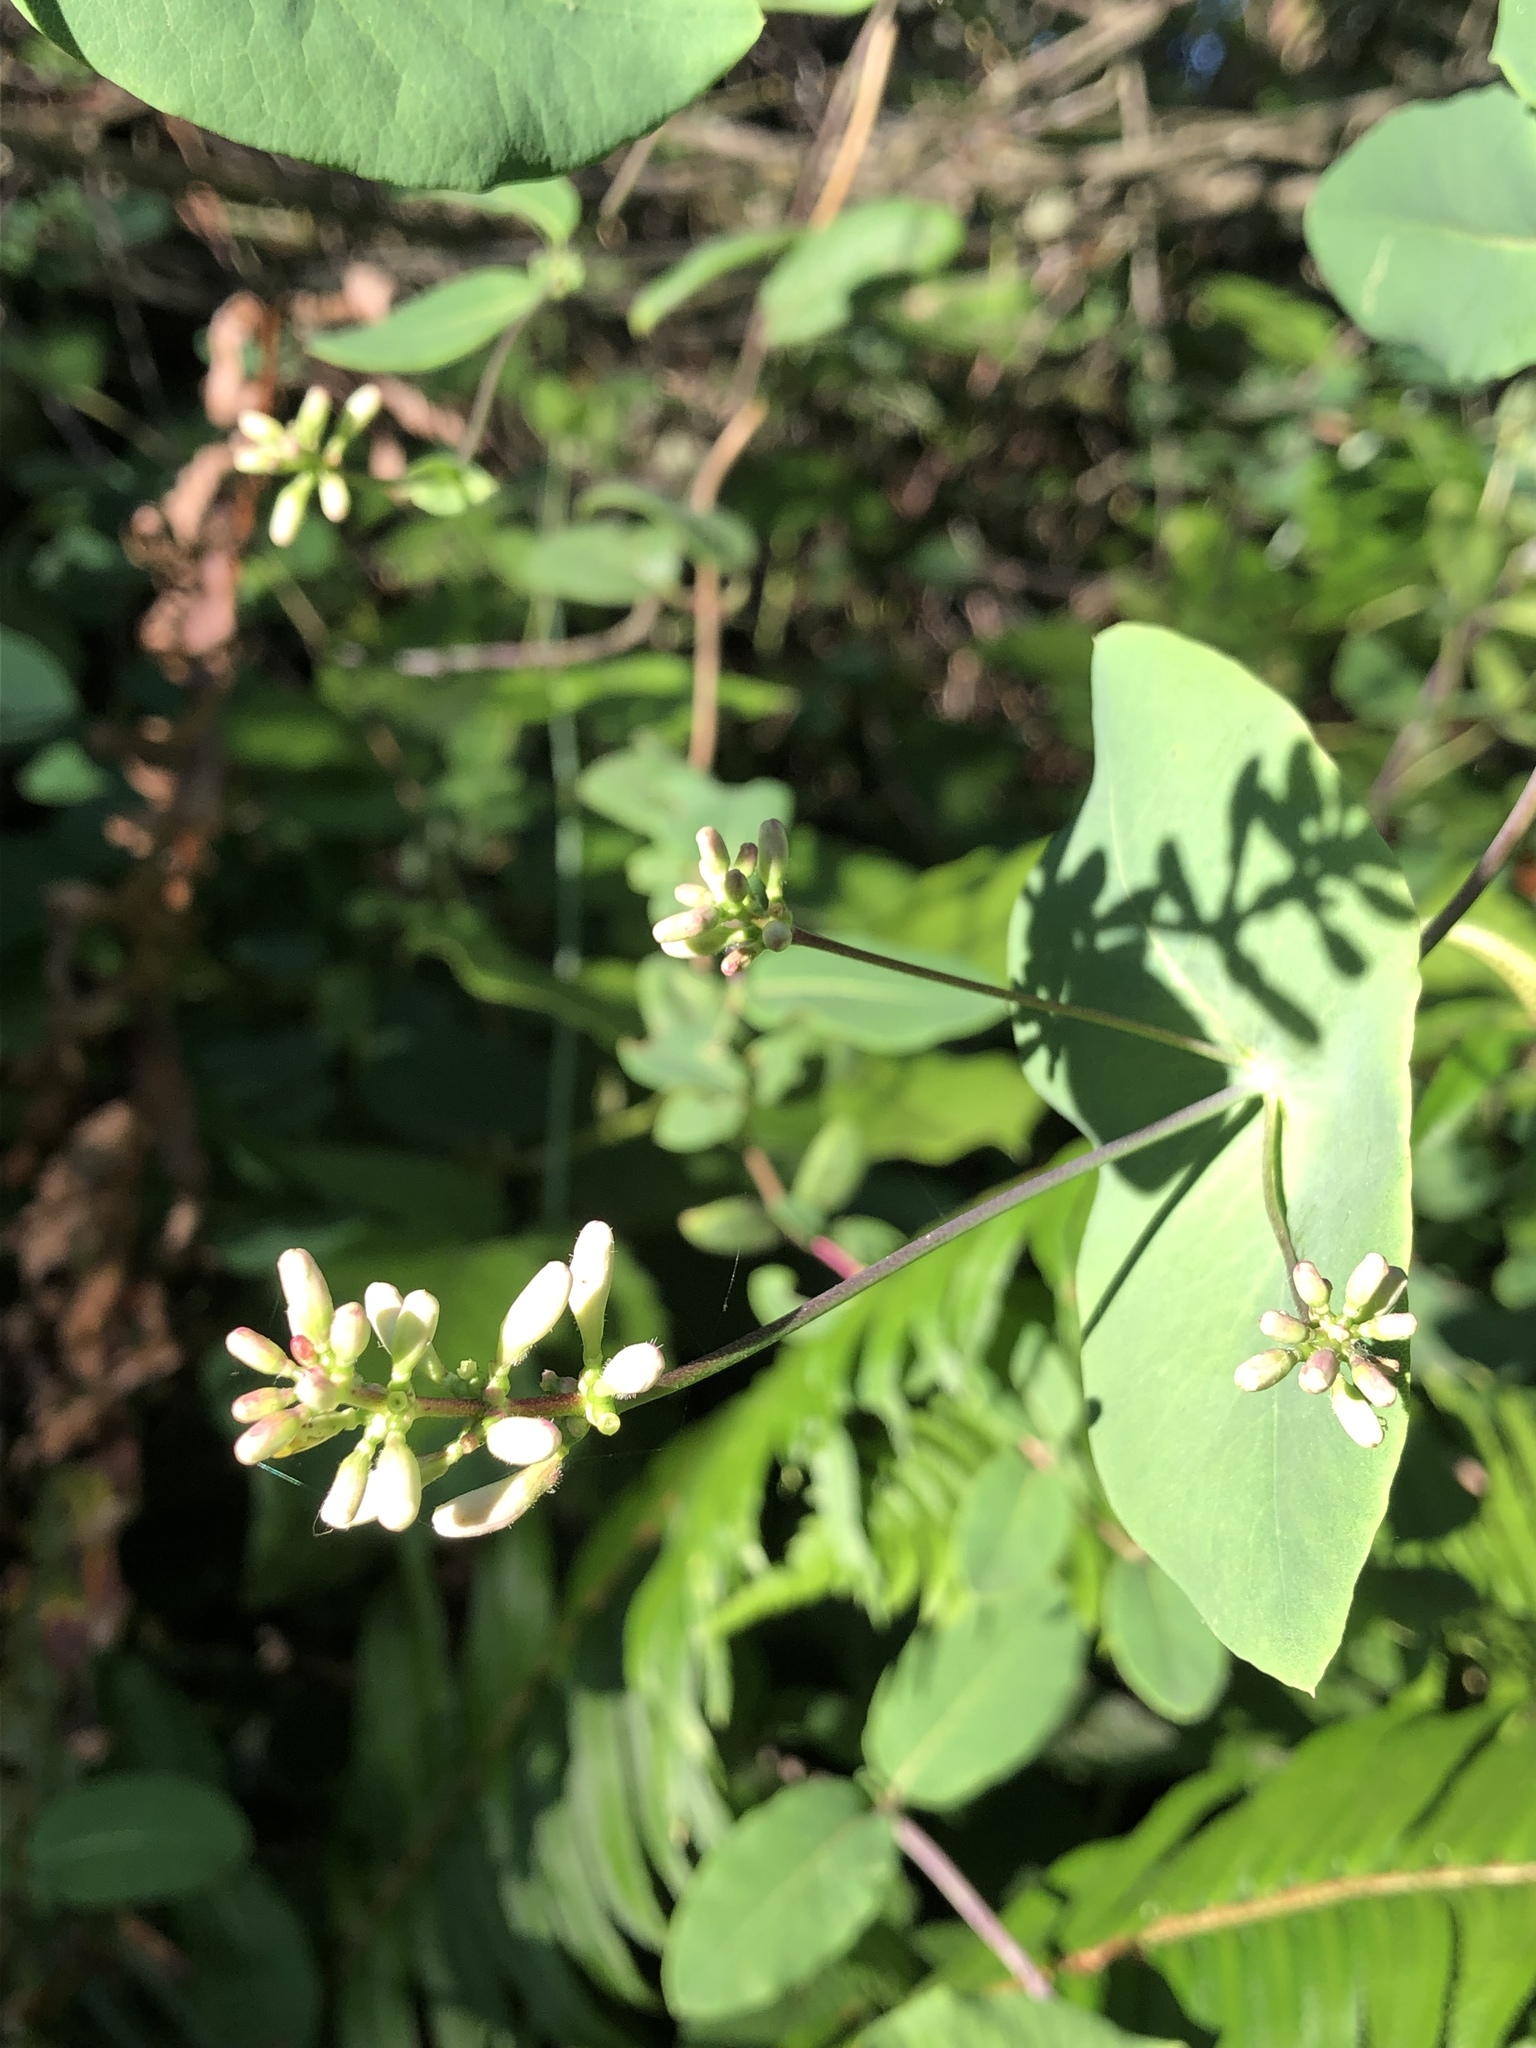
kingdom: Plantae
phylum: Tracheophyta
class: Magnoliopsida
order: Dipsacales
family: Caprifoliaceae
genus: Lonicera
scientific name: Lonicera hispidula
